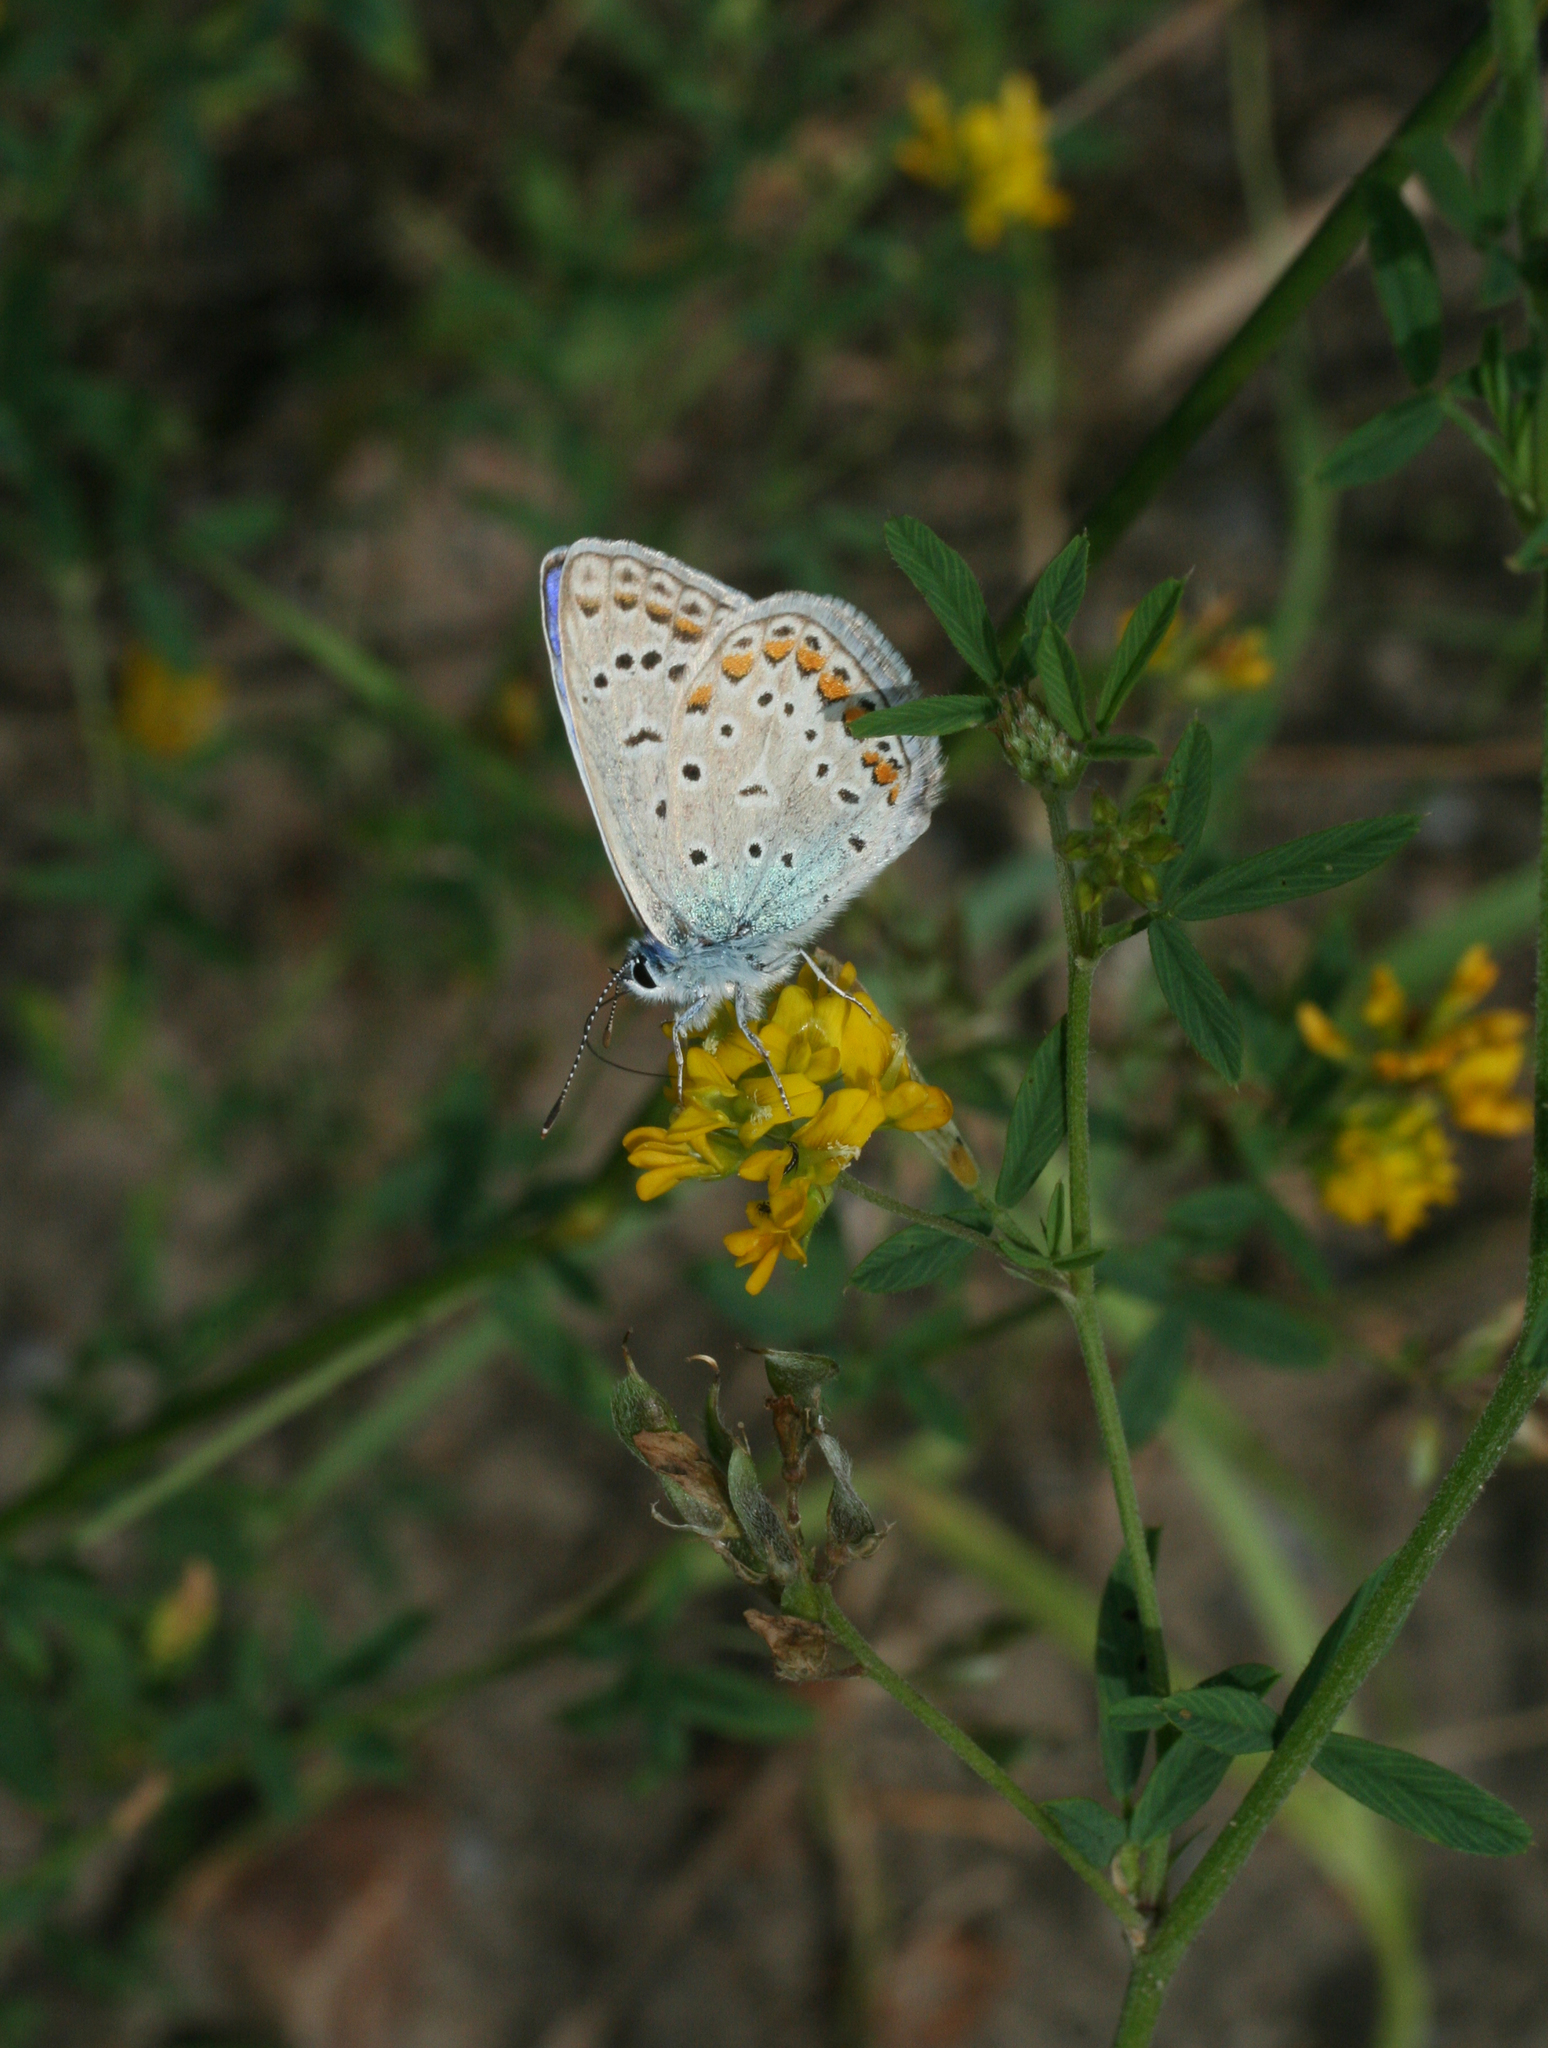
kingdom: Animalia
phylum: Arthropoda
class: Insecta
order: Lepidoptera
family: Lycaenidae
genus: Polyommatus
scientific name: Polyommatus icarus
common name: Common blue
